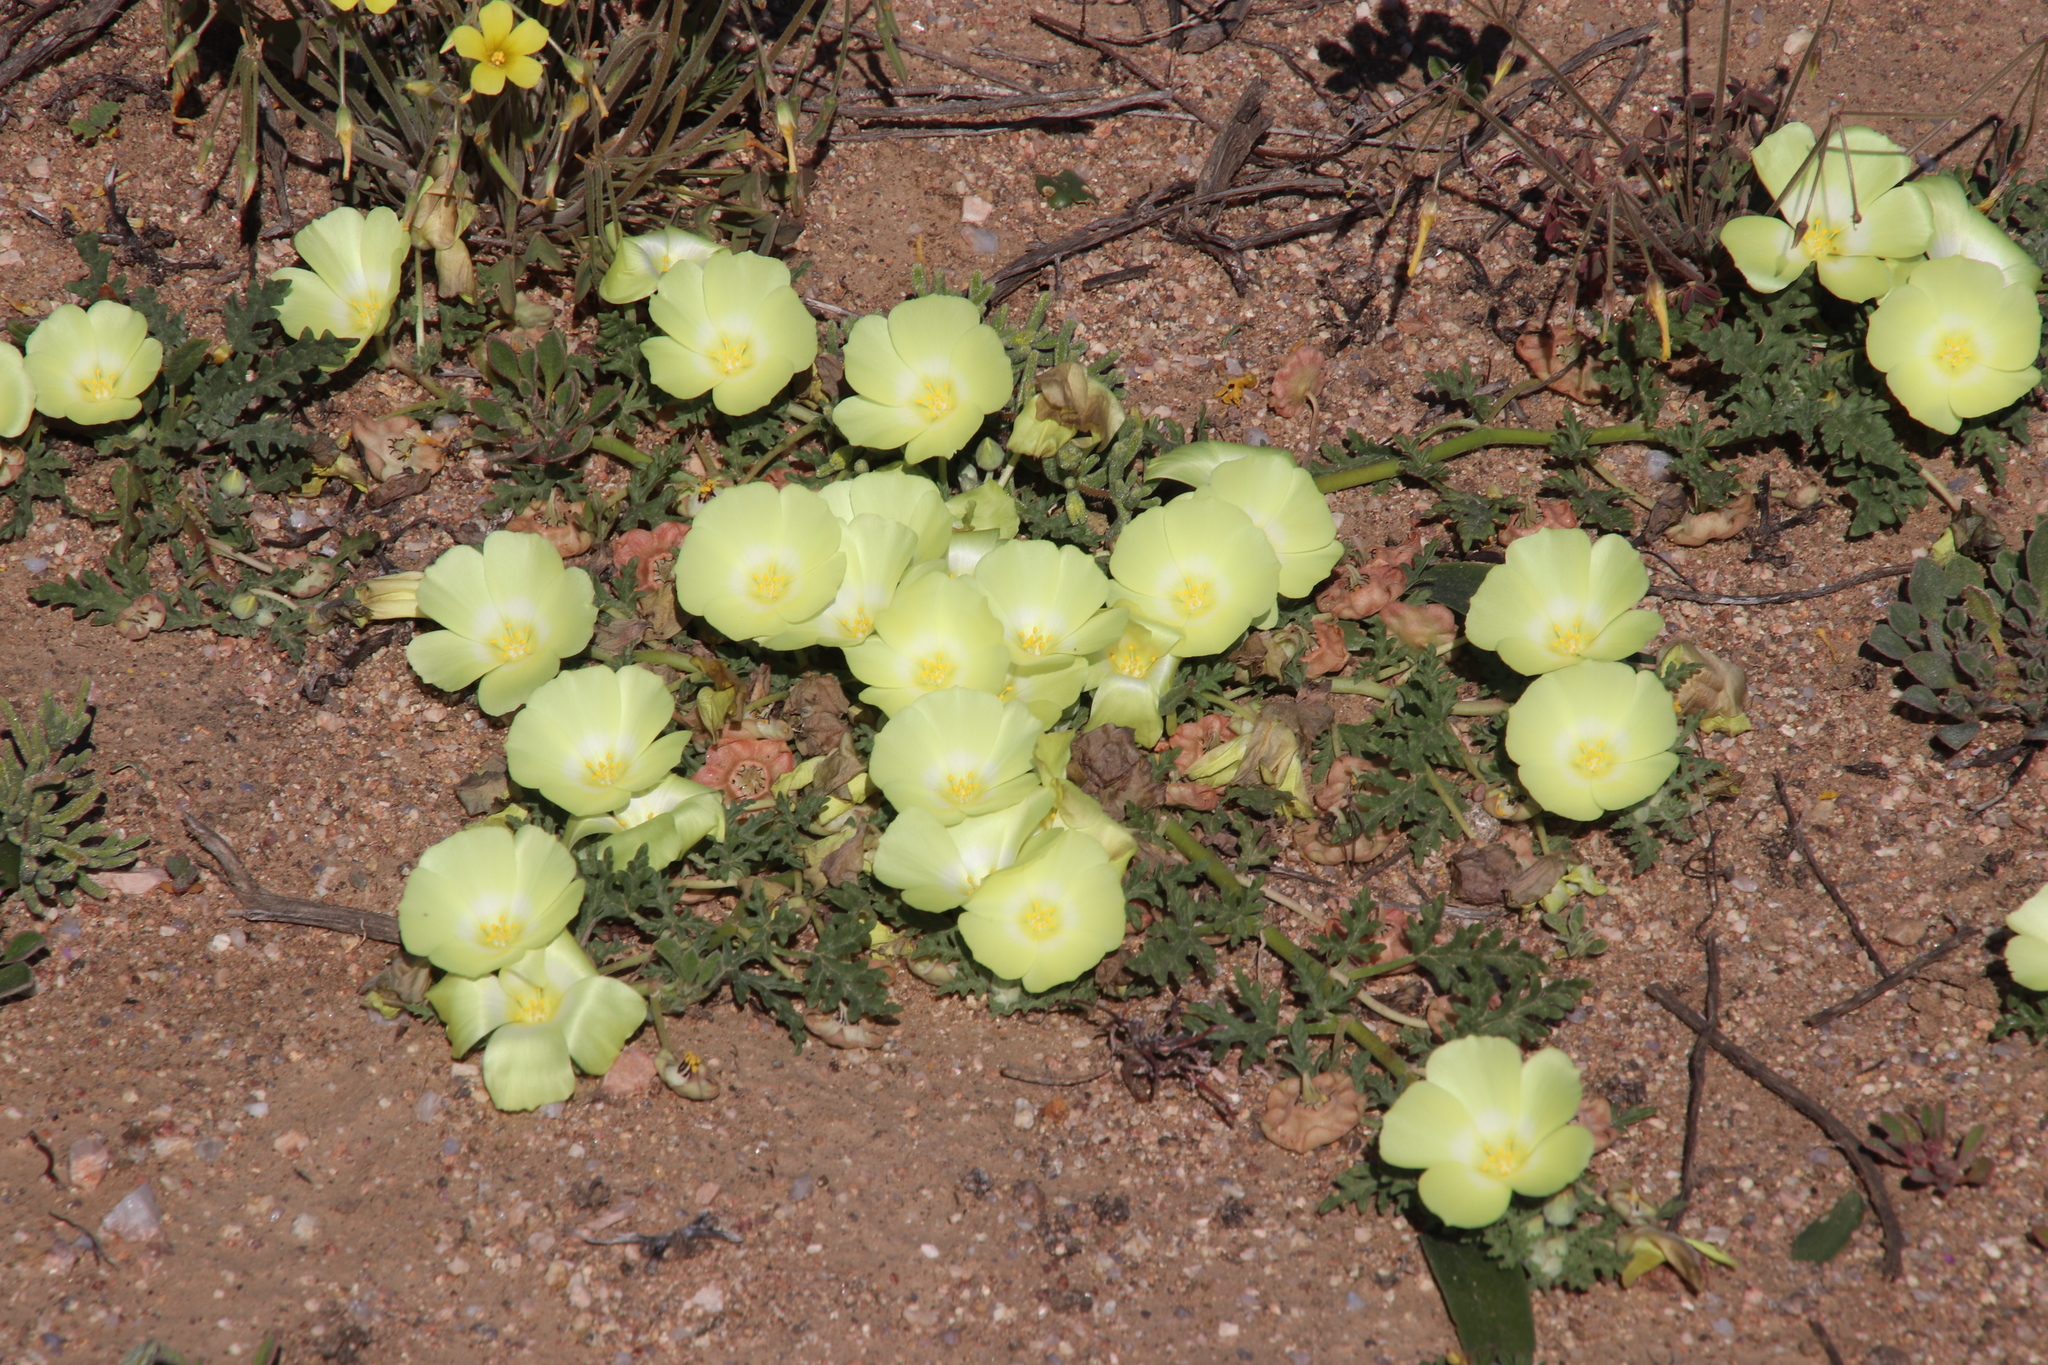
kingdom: Plantae
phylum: Tracheophyta
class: Magnoliopsida
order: Malvales
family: Neuradaceae
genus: Grielum
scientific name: Grielum humifusum
